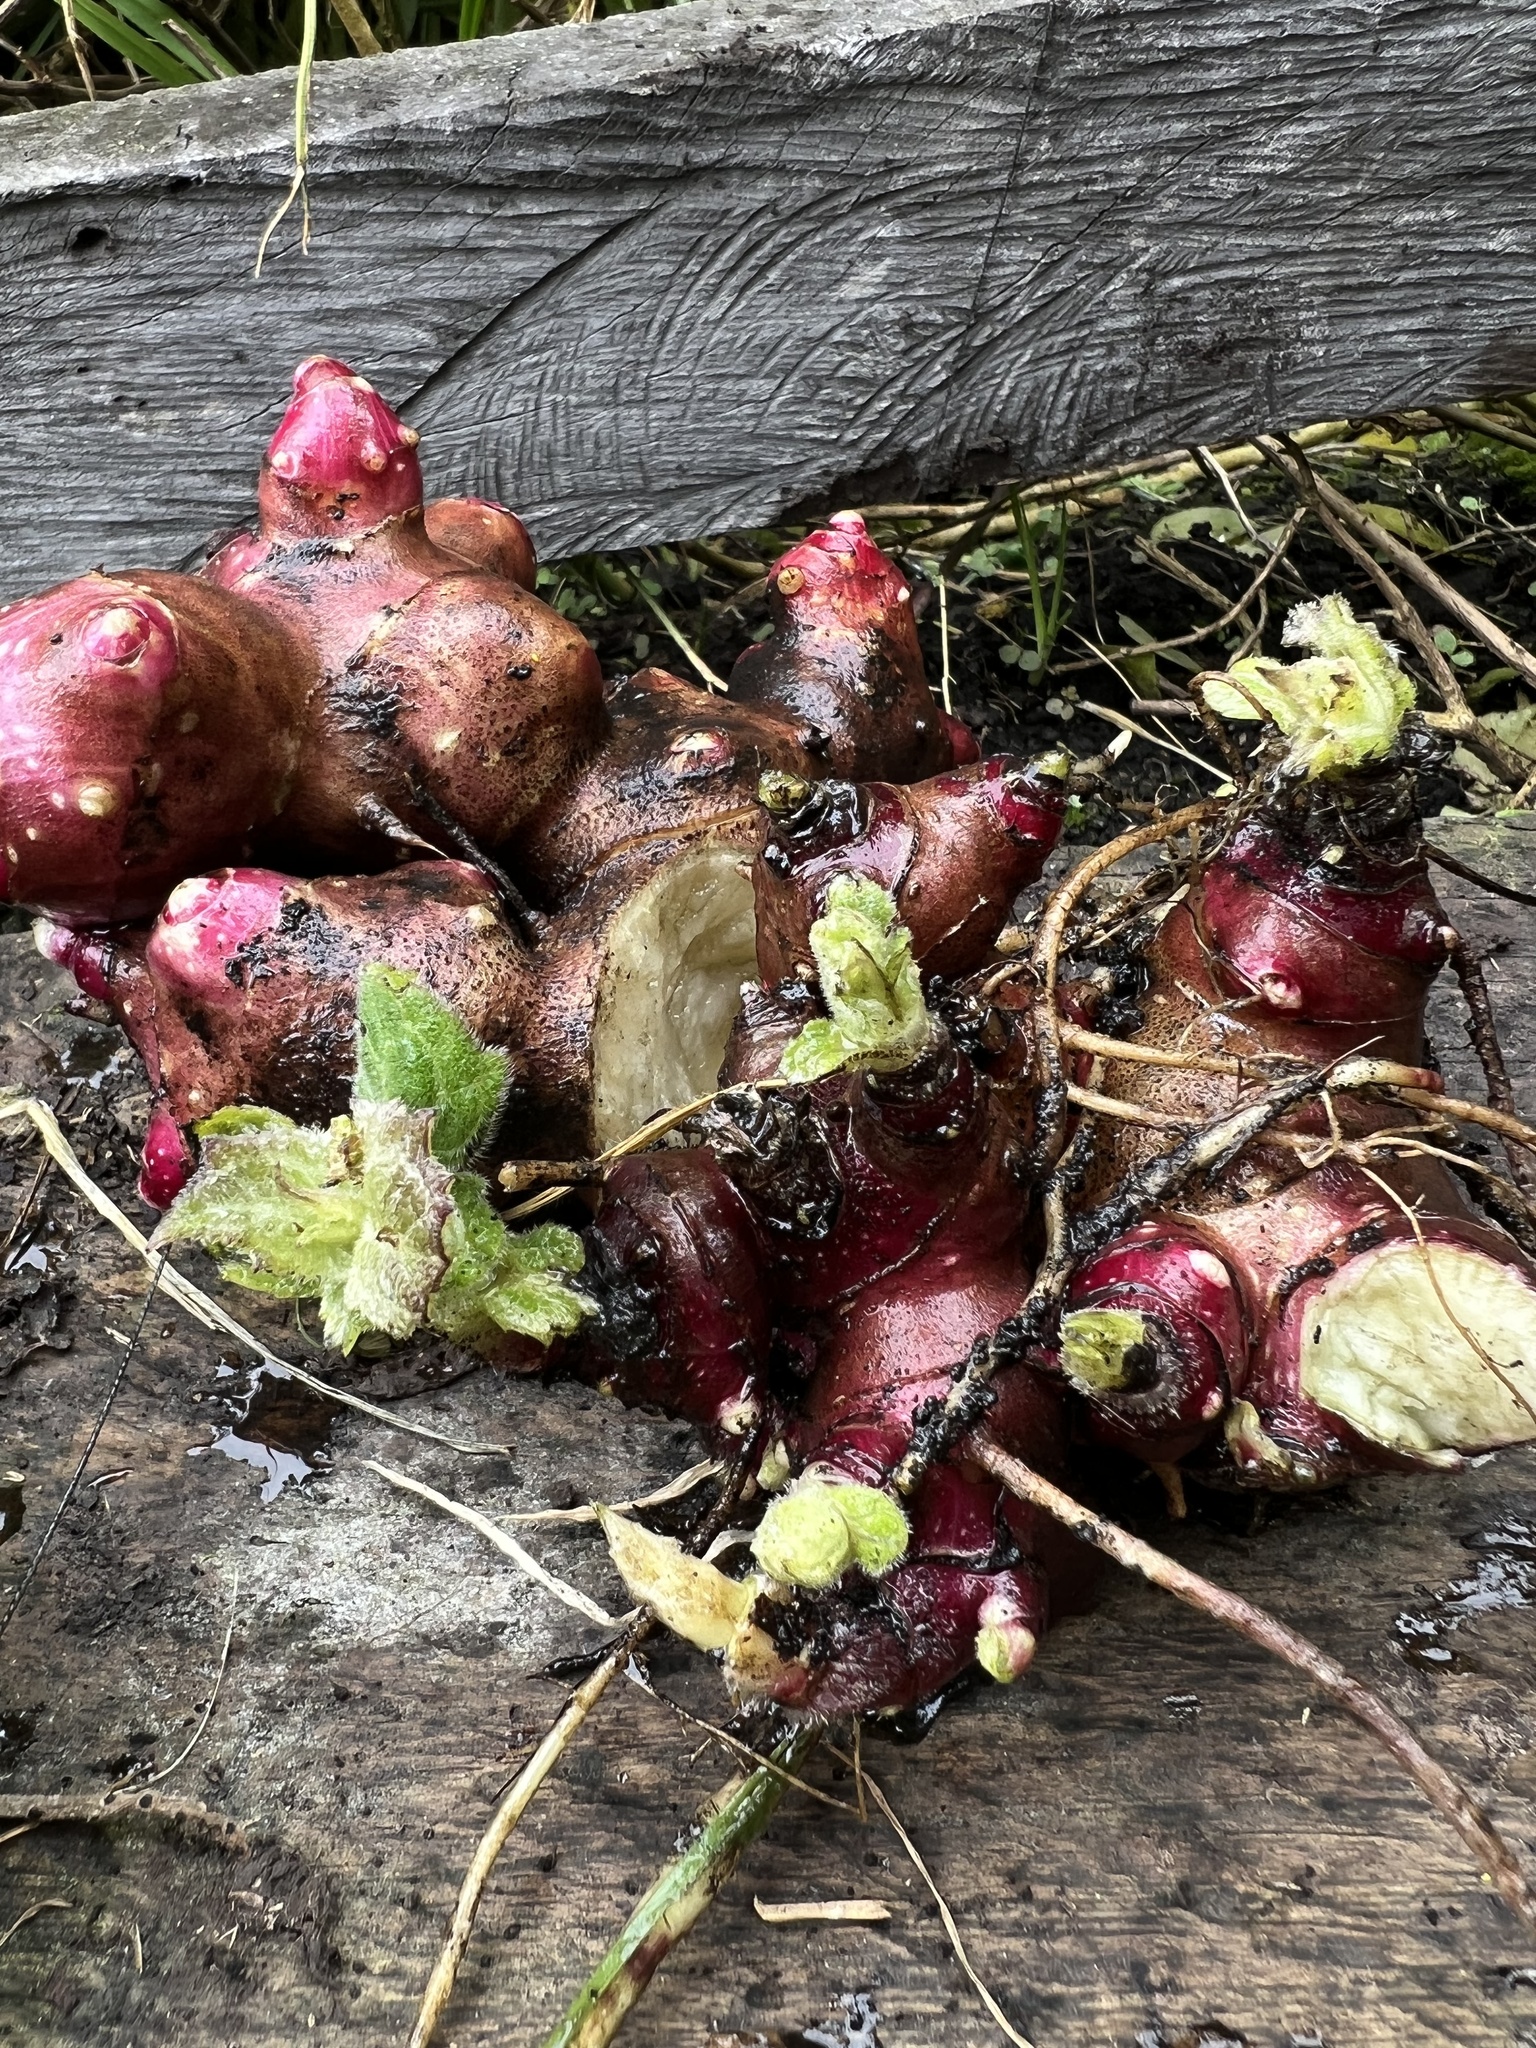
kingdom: Plantae
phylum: Tracheophyta
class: Magnoliopsida
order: Asterales
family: Asteraceae
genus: Smallanthus
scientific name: Smallanthus sonchifolius
